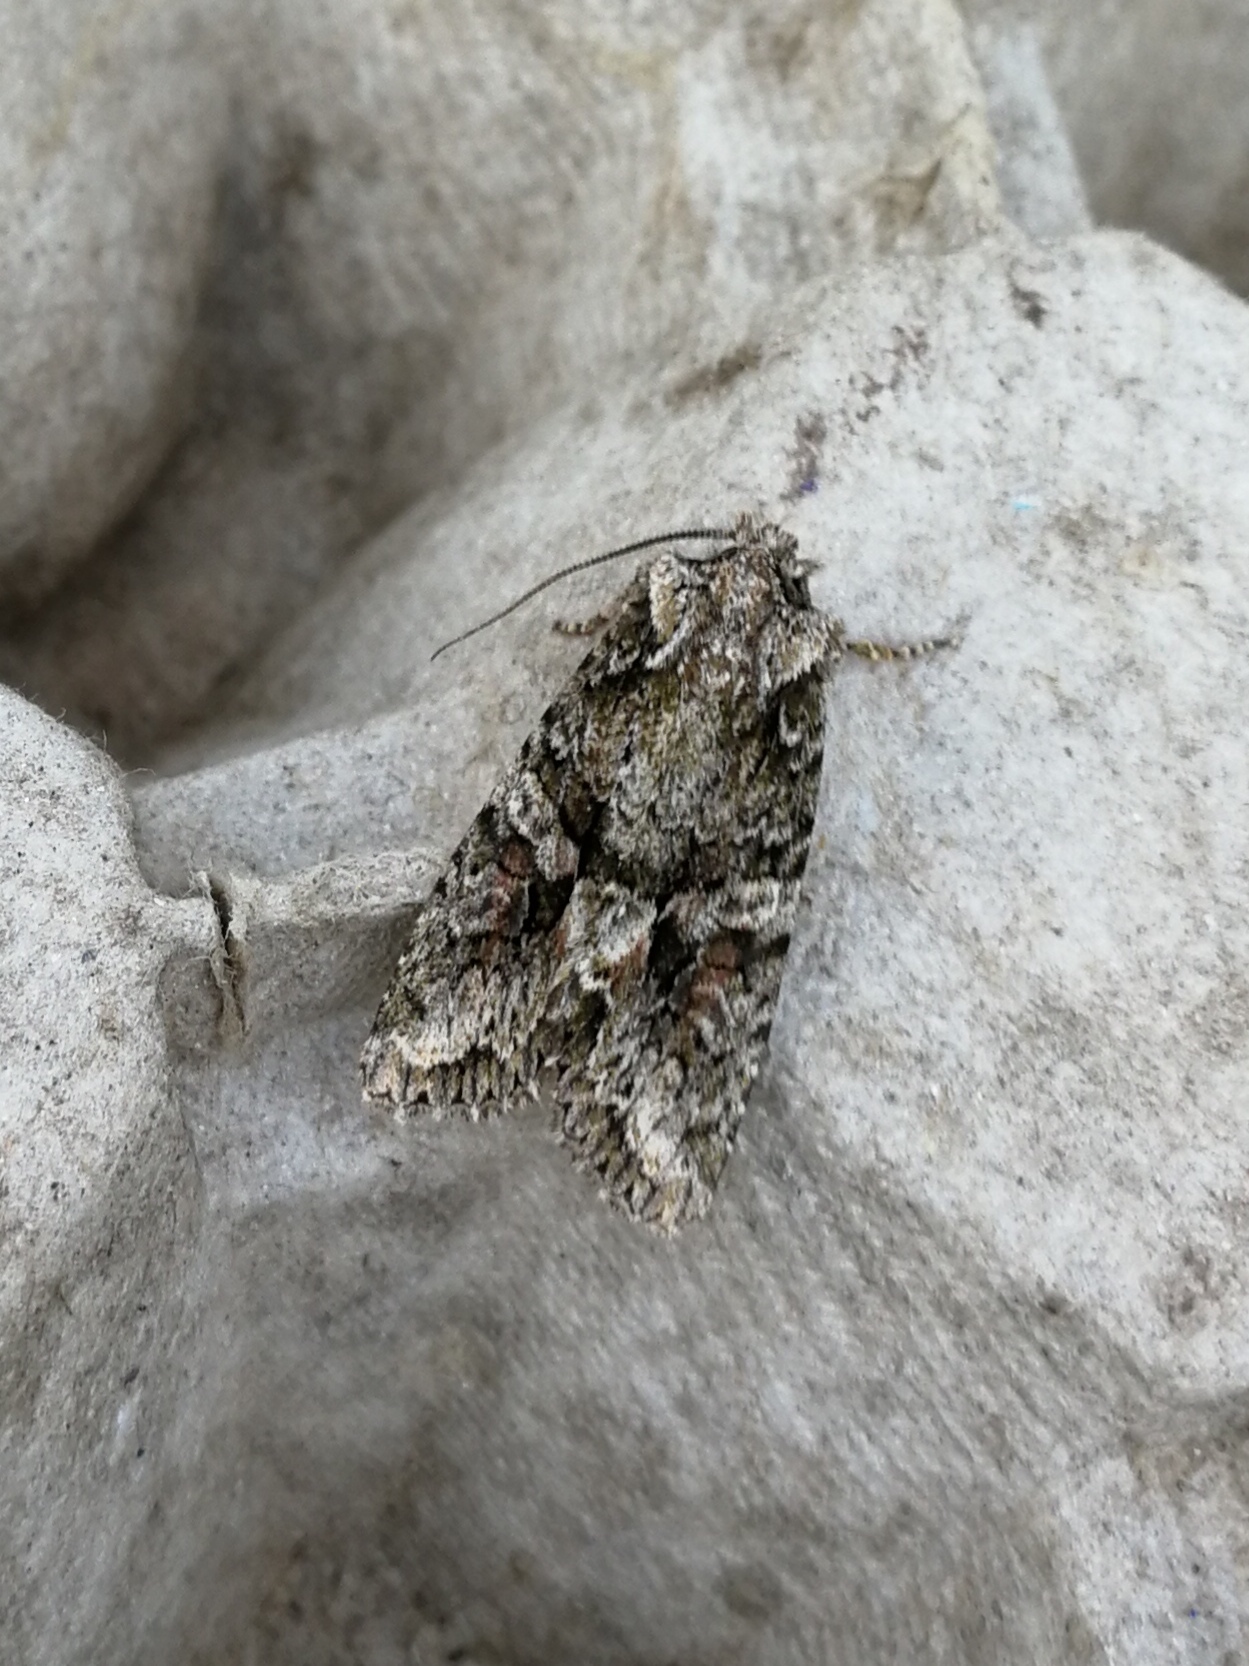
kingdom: Animalia
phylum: Arthropoda
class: Insecta
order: Lepidoptera
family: Noctuidae
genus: Dryobotodes
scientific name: Dryobotodes eremita
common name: Brindled green
